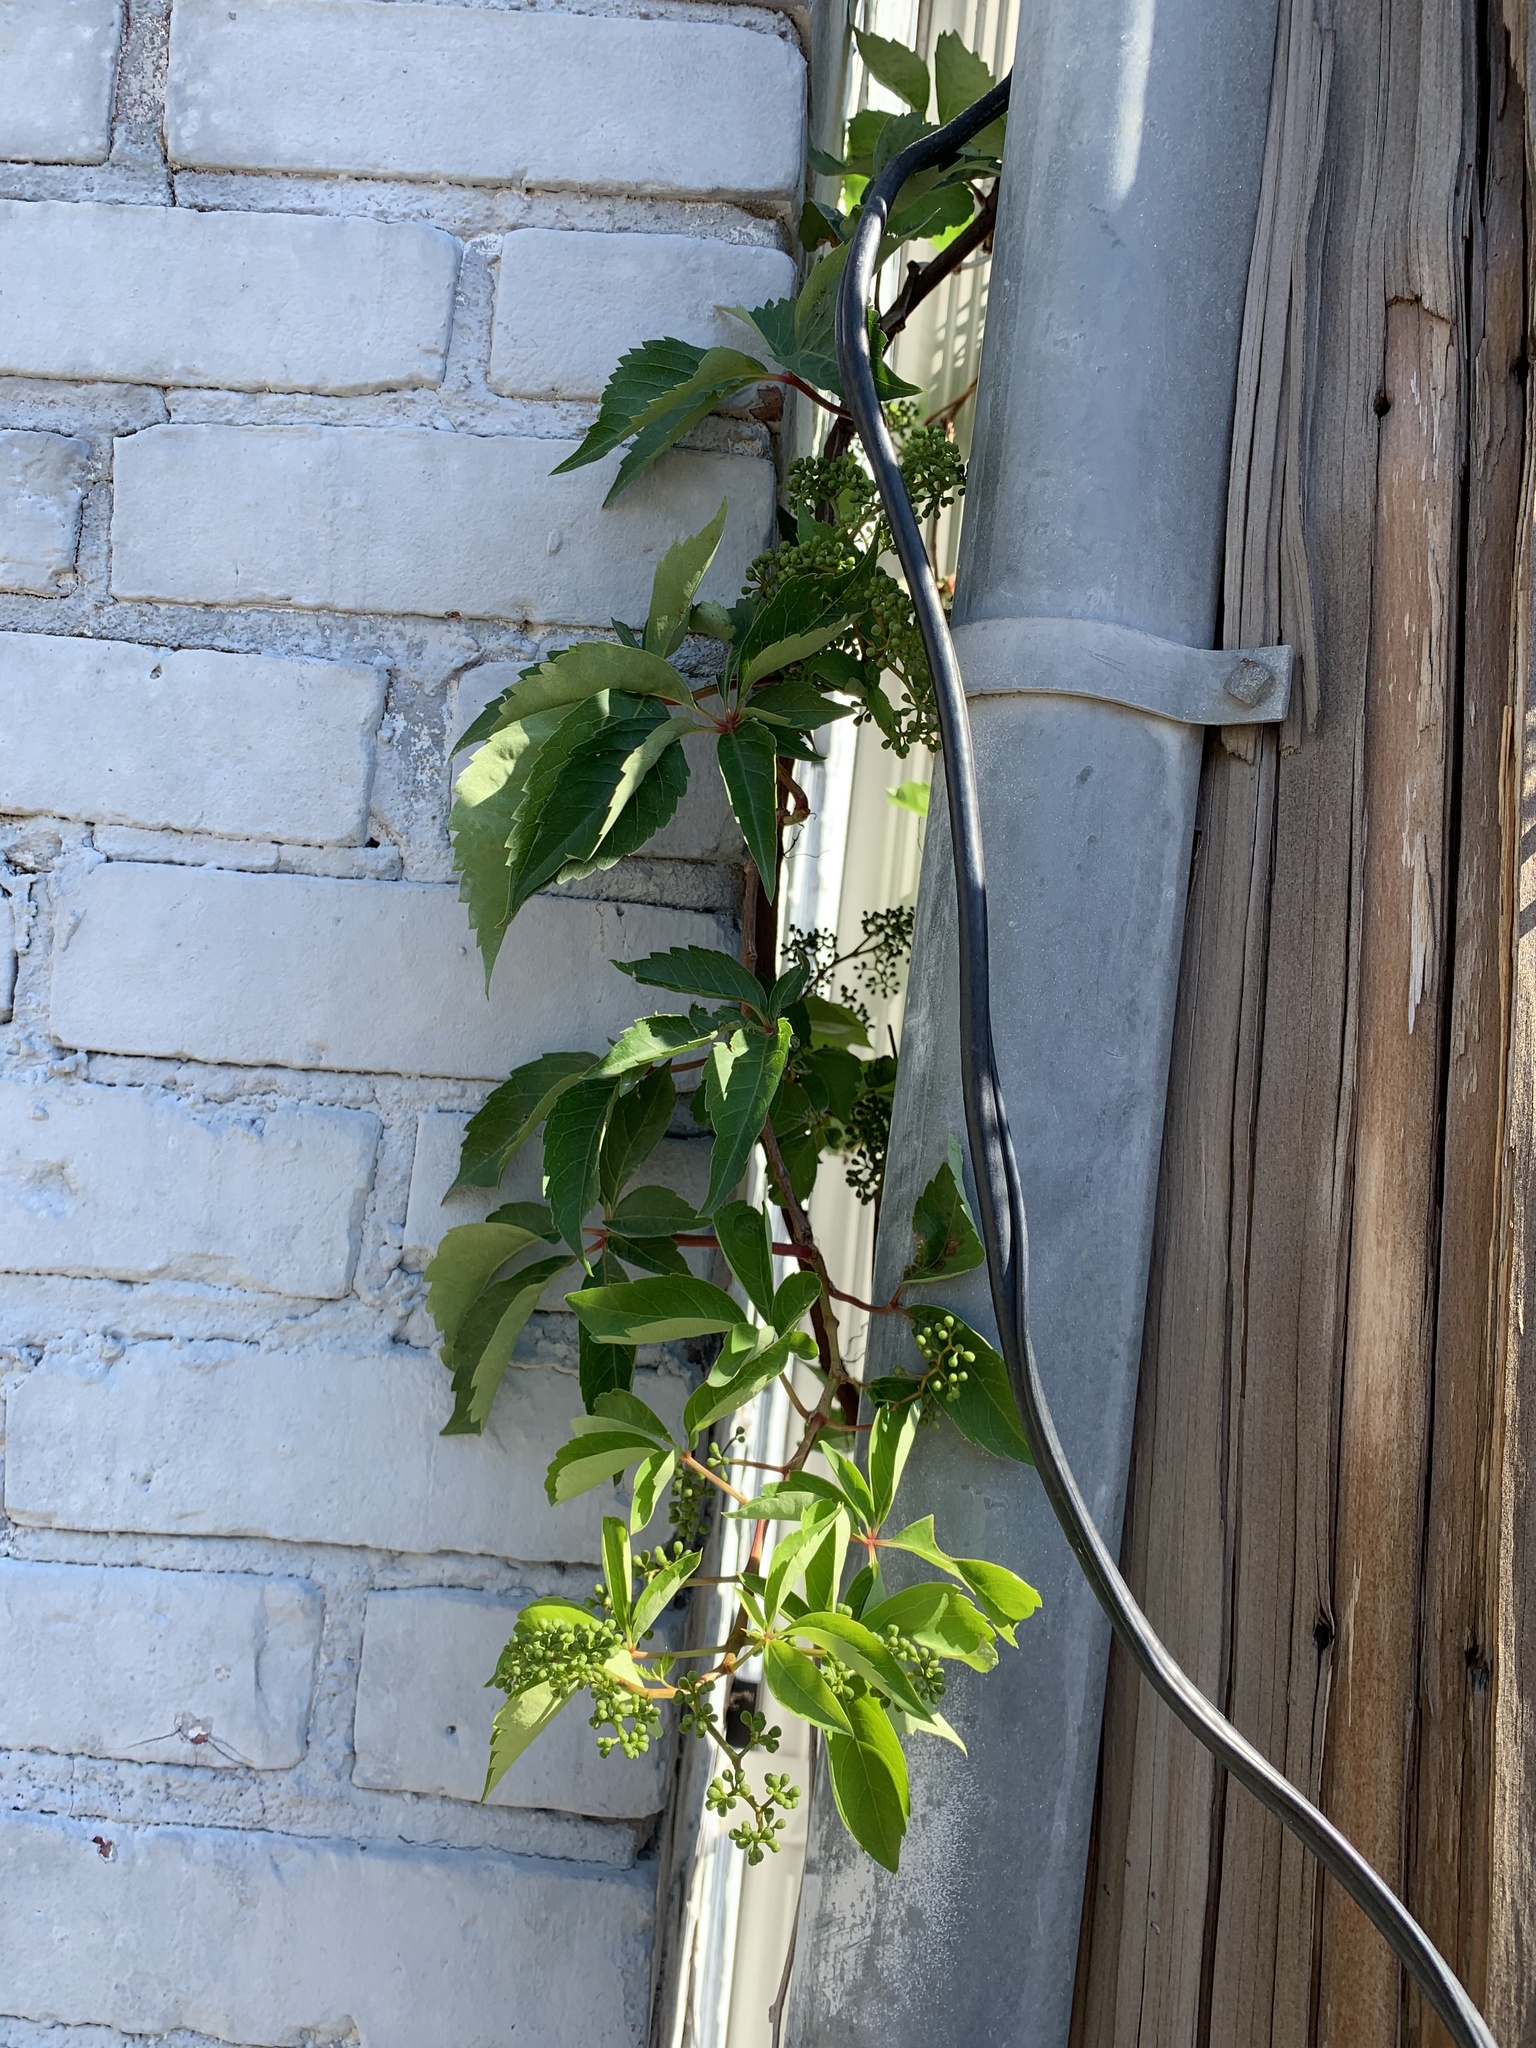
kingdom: Plantae
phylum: Tracheophyta
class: Magnoliopsida
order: Vitales
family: Vitaceae
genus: Parthenocissus
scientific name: Parthenocissus quinquefolia
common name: Virginia-creeper
